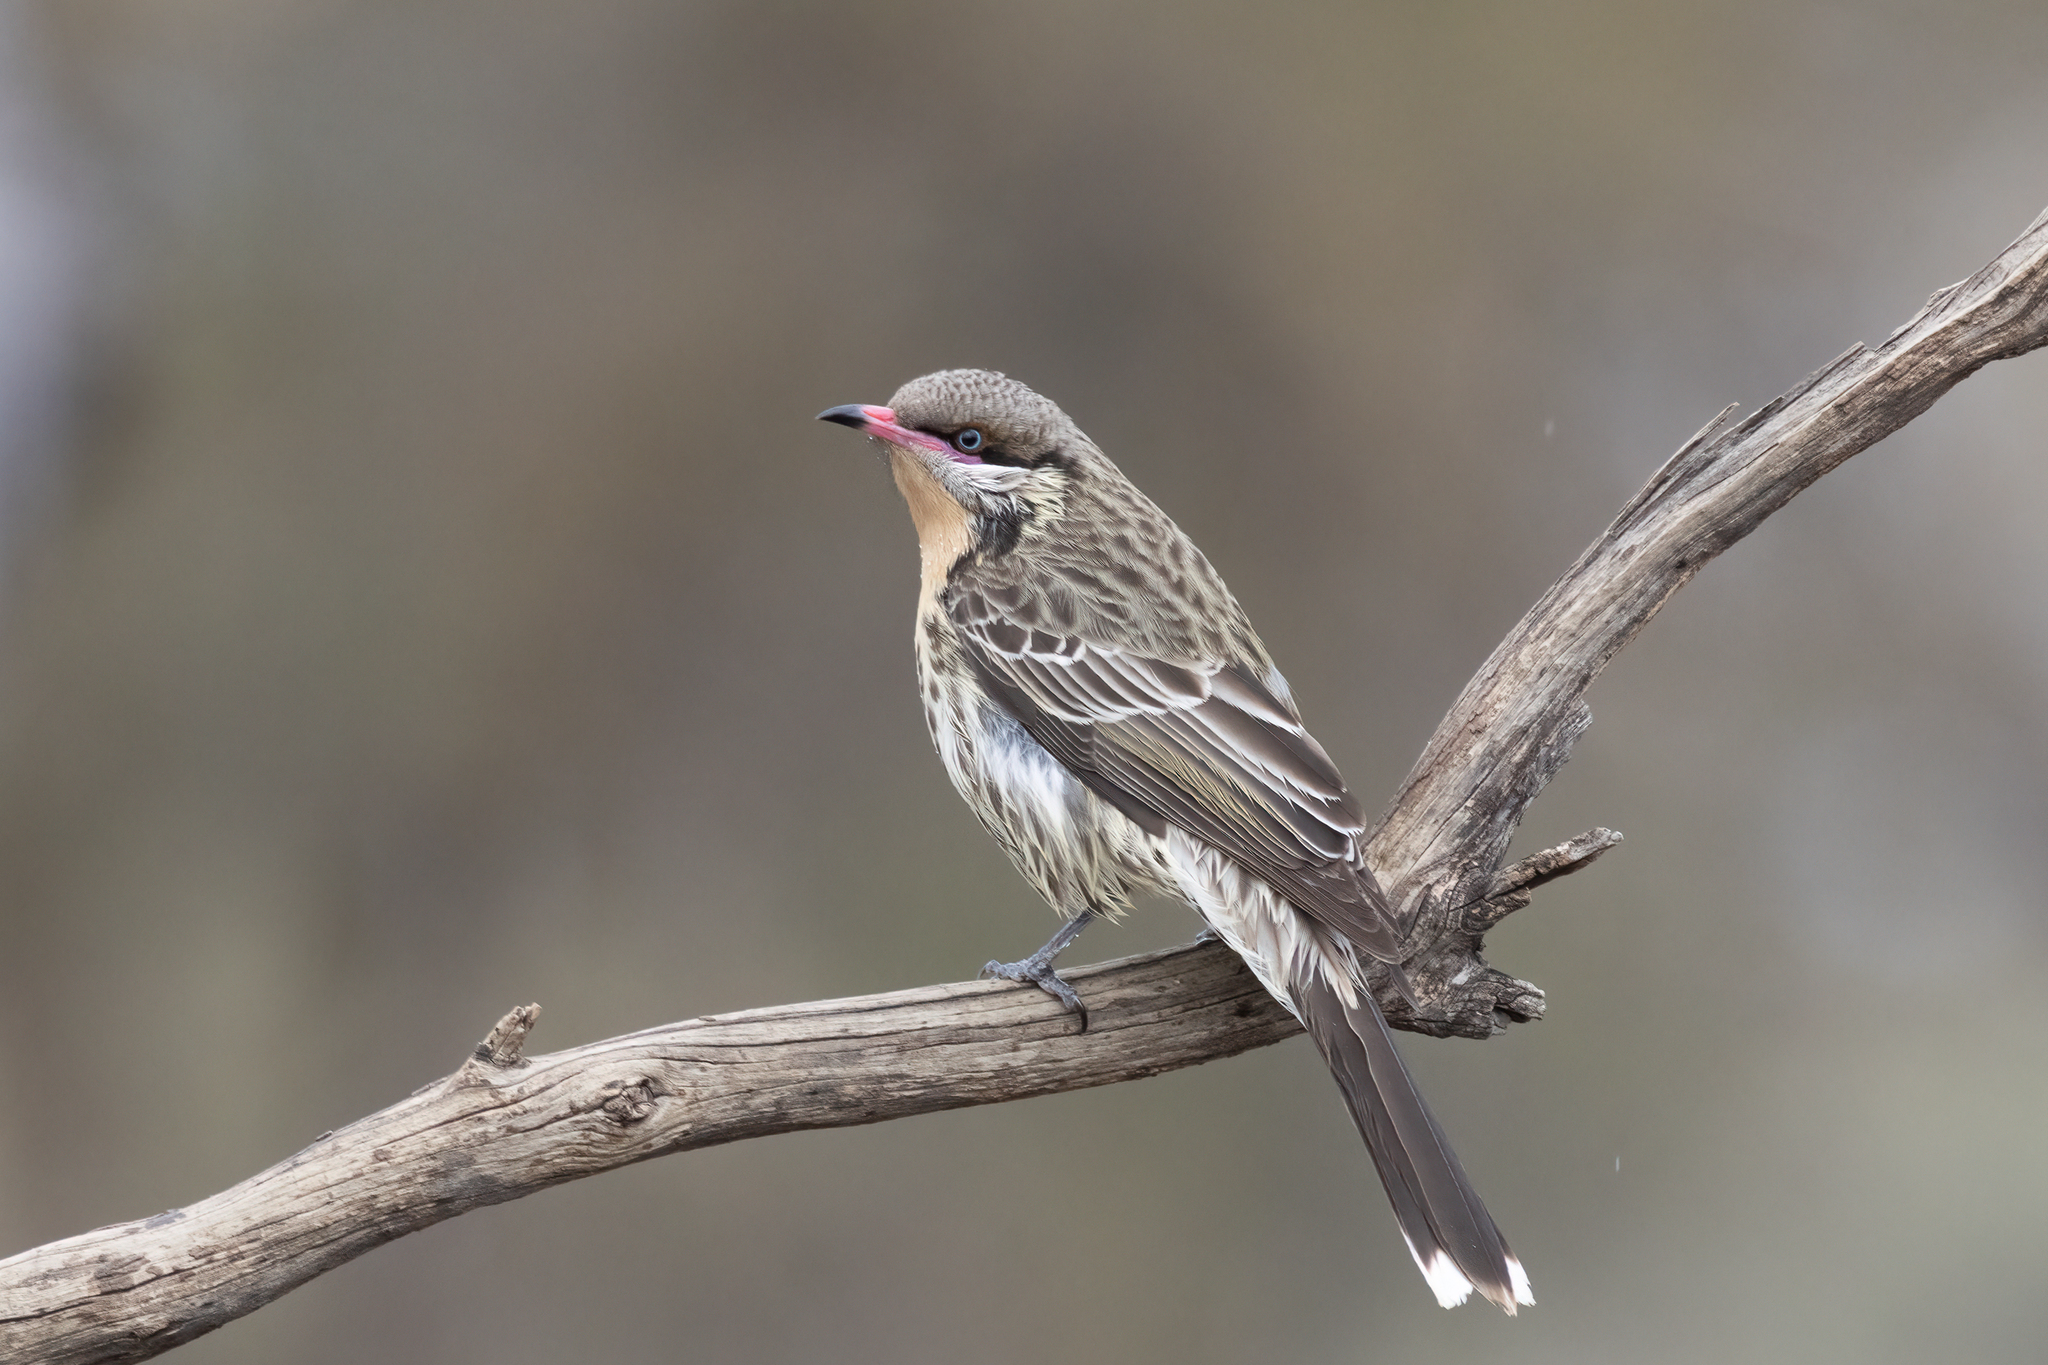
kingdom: Animalia
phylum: Chordata
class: Aves
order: Passeriformes
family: Meliphagidae
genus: Acanthagenys
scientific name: Acanthagenys rufogularis
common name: Spiny-cheeked honeyeater
